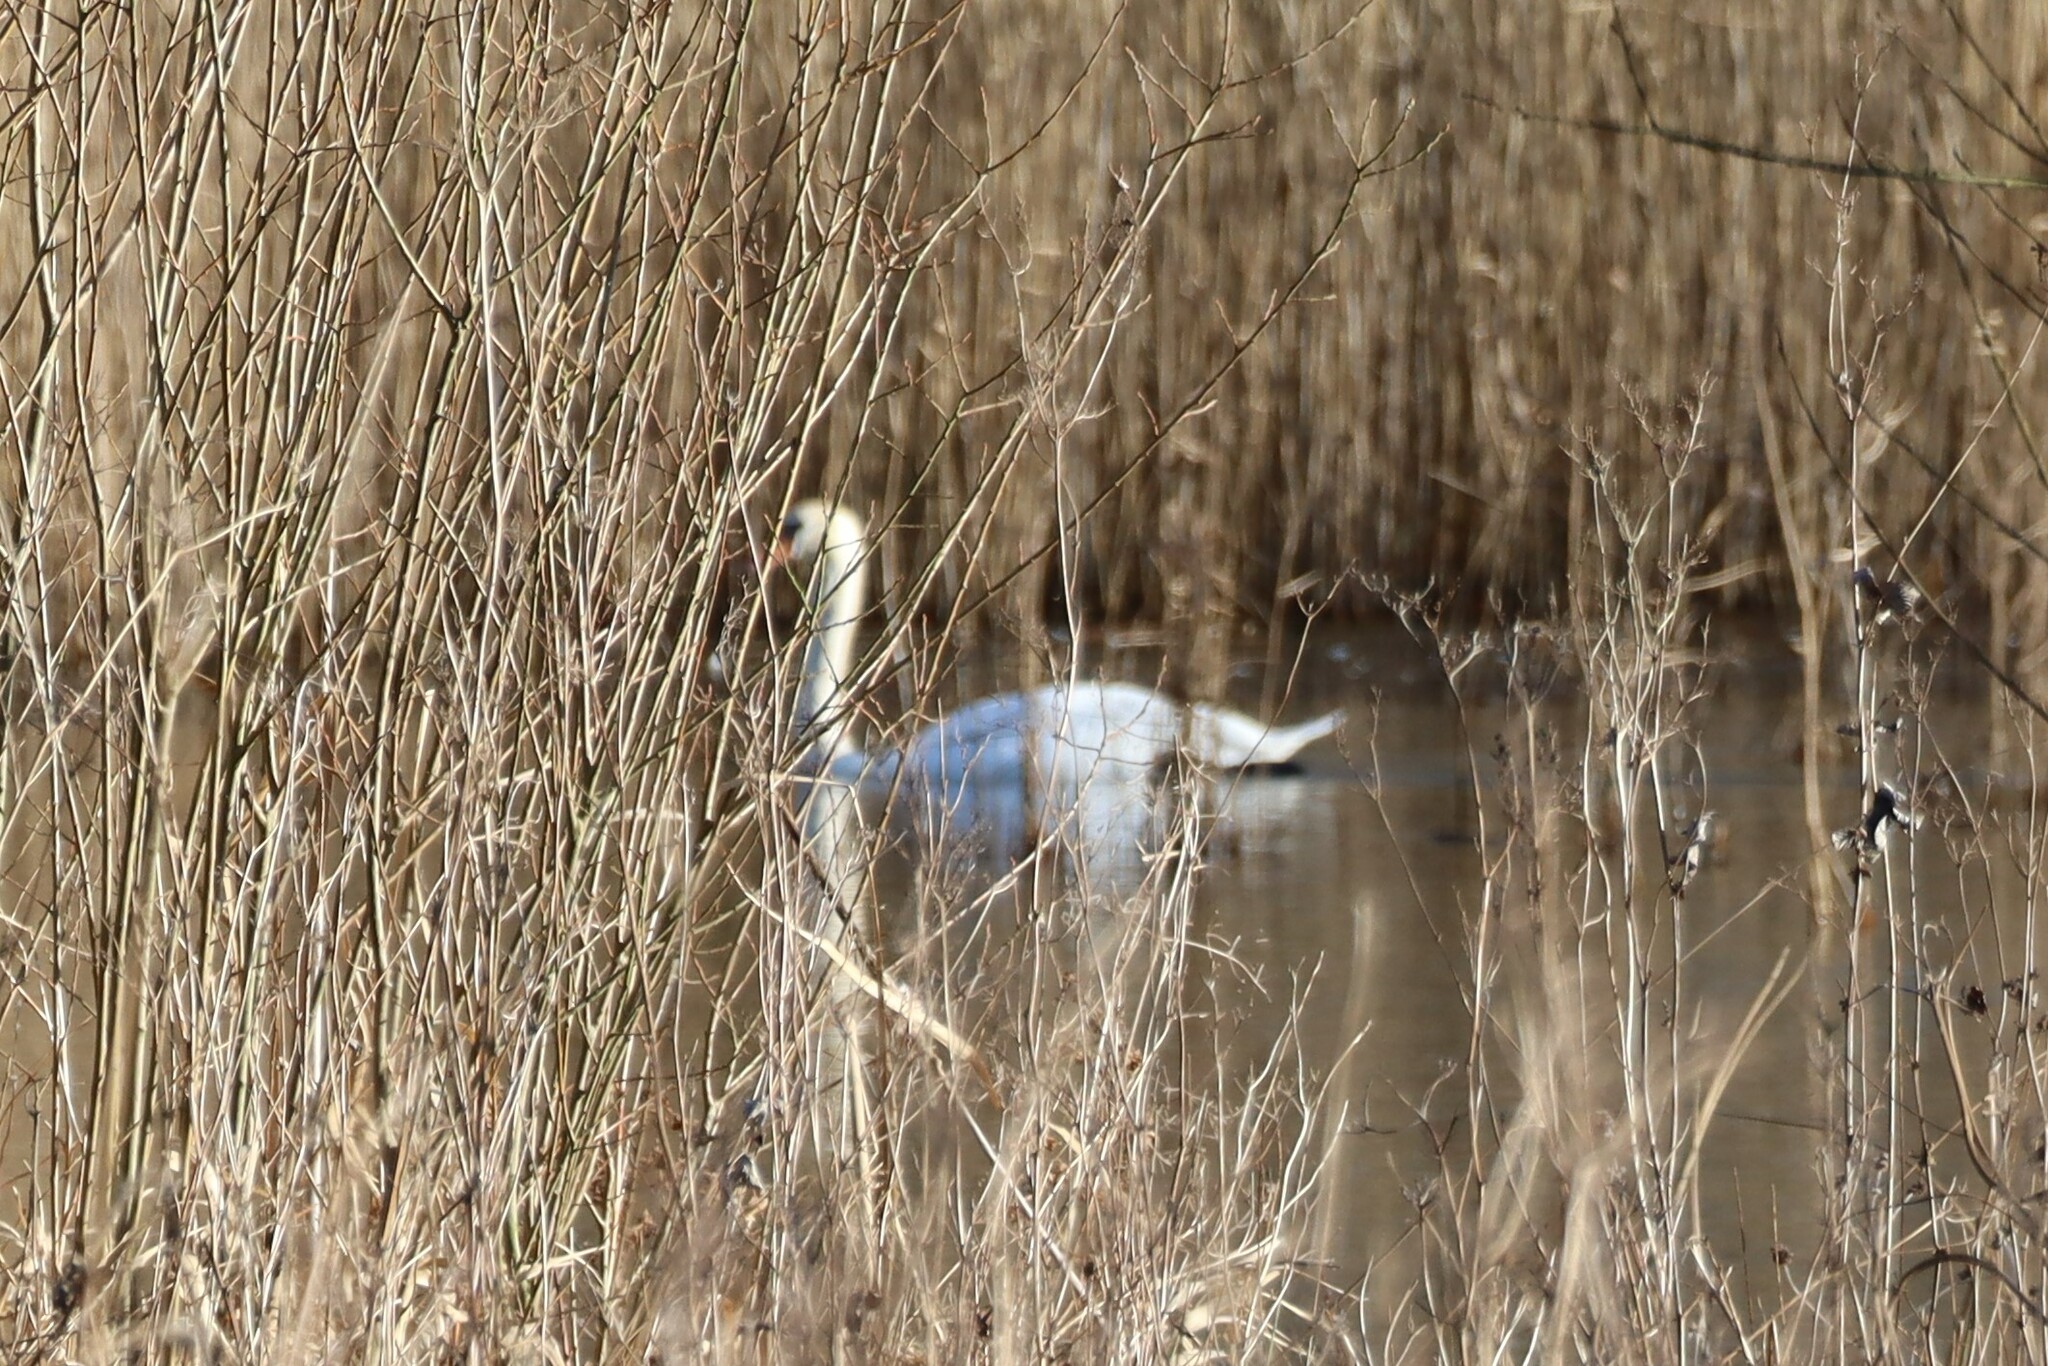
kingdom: Animalia
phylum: Chordata
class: Aves
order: Anseriformes
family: Anatidae
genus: Cygnus
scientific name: Cygnus olor
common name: Mute swan
